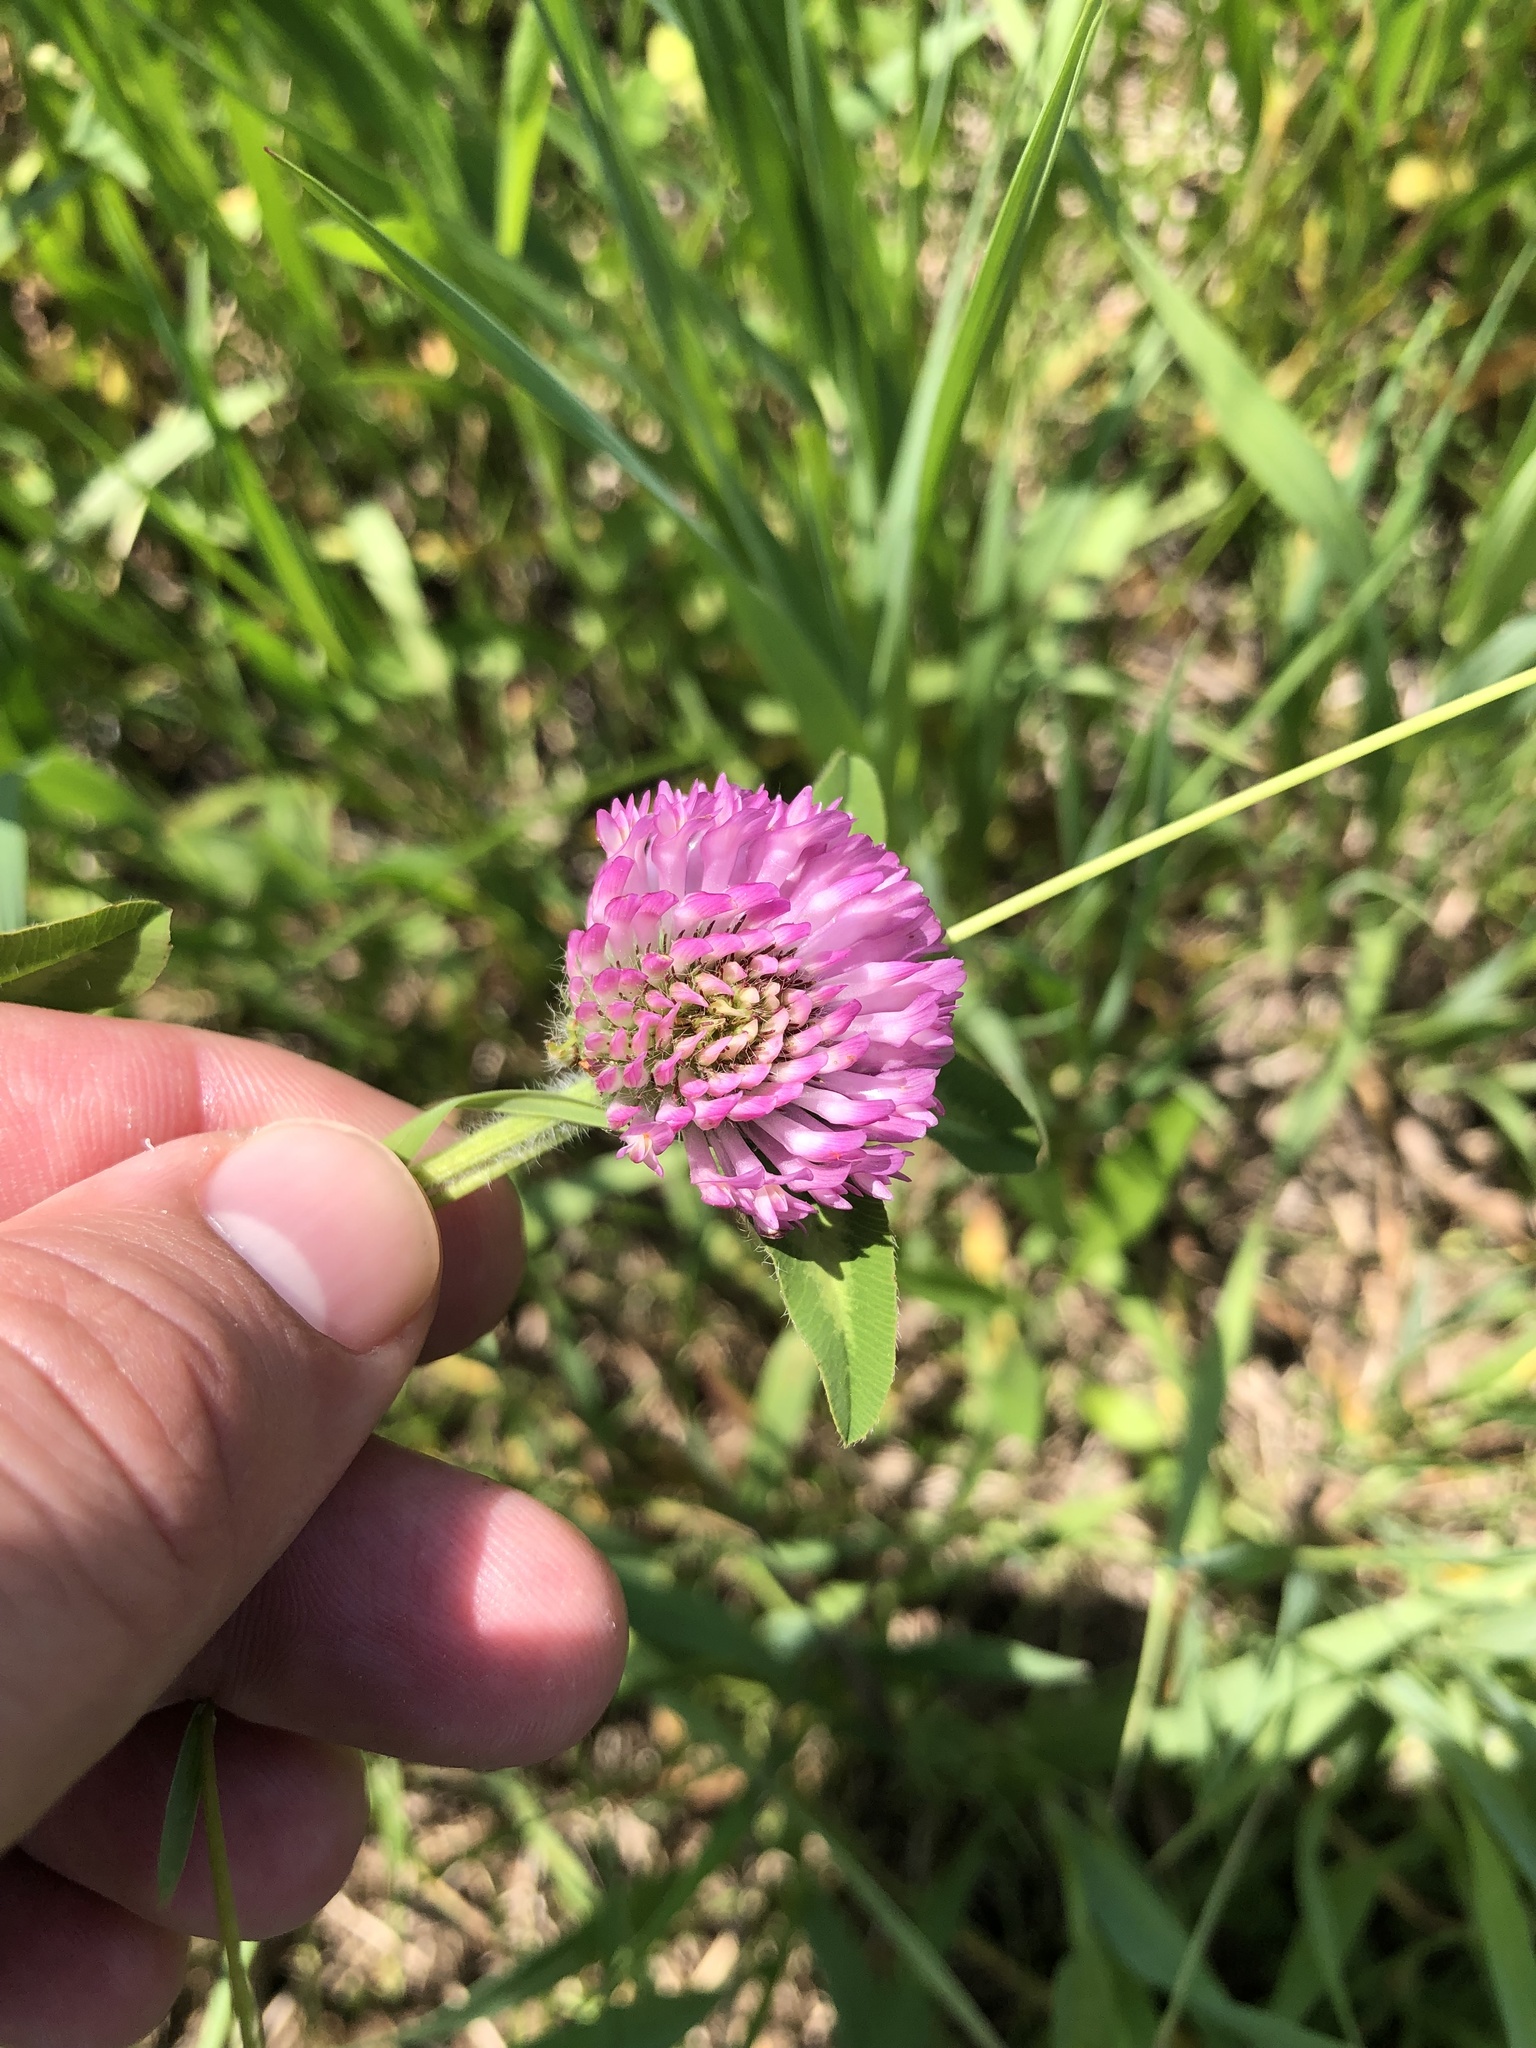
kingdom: Plantae
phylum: Tracheophyta
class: Magnoliopsida
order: Fabales
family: Fabaceae
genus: Trifolium
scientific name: Trifolium pratense
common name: Red clover
